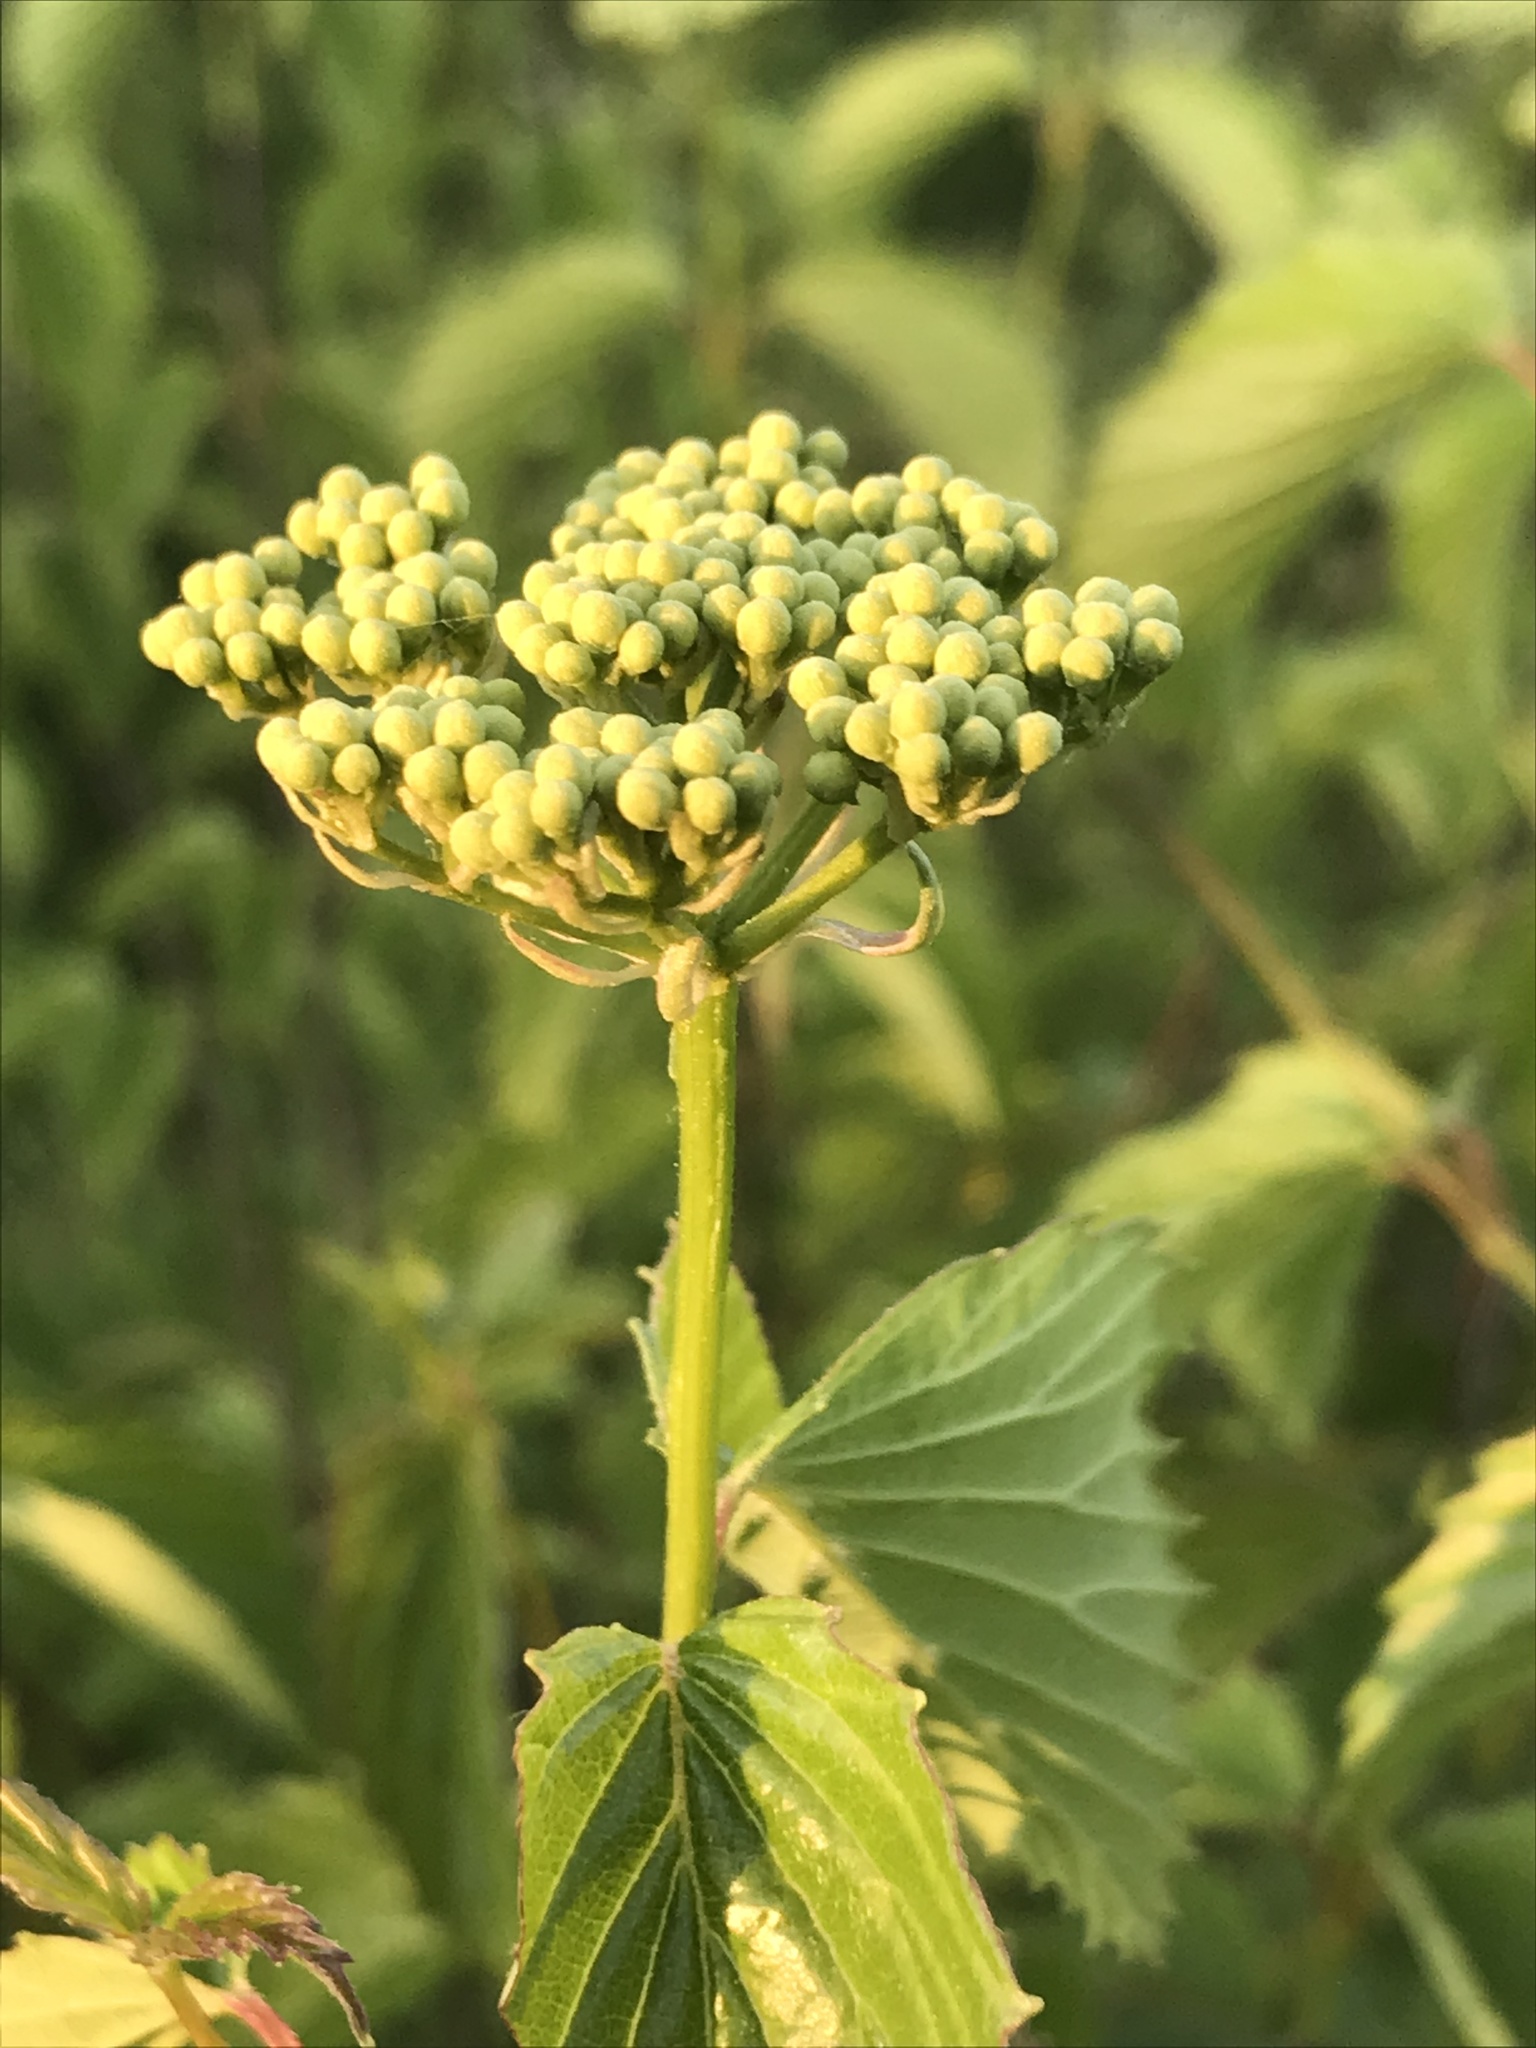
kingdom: Plantae
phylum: Tracheophyta
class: Magnoliopsida
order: Dipsacales
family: Viburnaceae
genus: Viburnum
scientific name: Viburnum dentatum
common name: Arrow-wood
